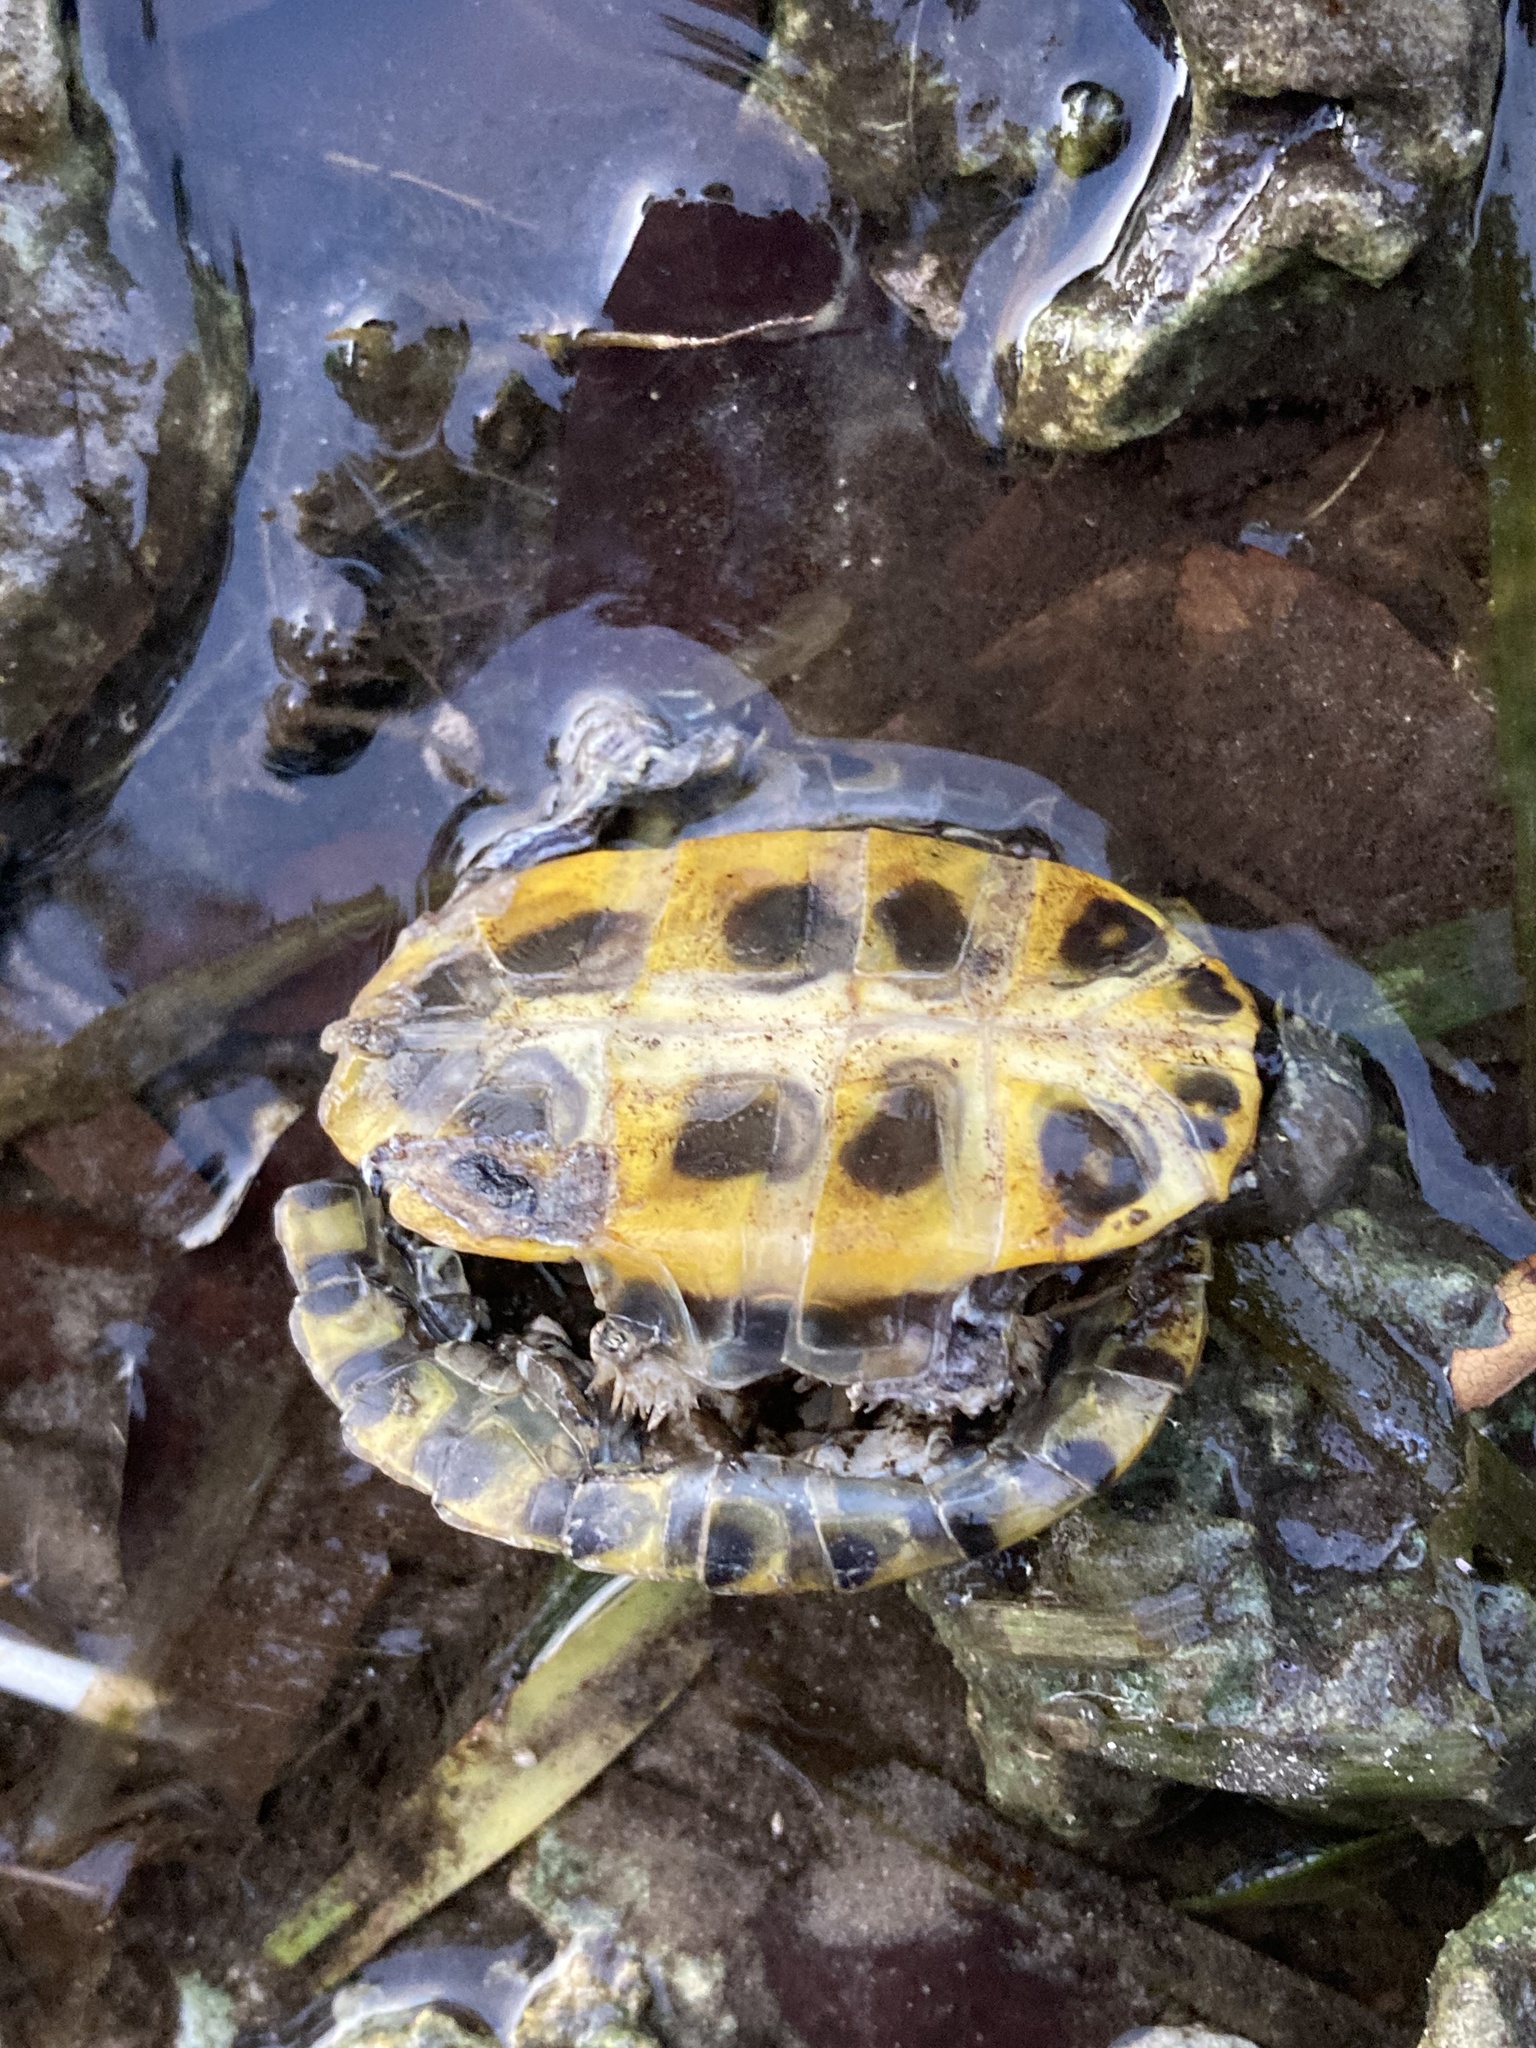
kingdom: Animalia
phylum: Chordata
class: Testudines
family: Emydidae
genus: Trachemys
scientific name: Trachemys scripta
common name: Slider
